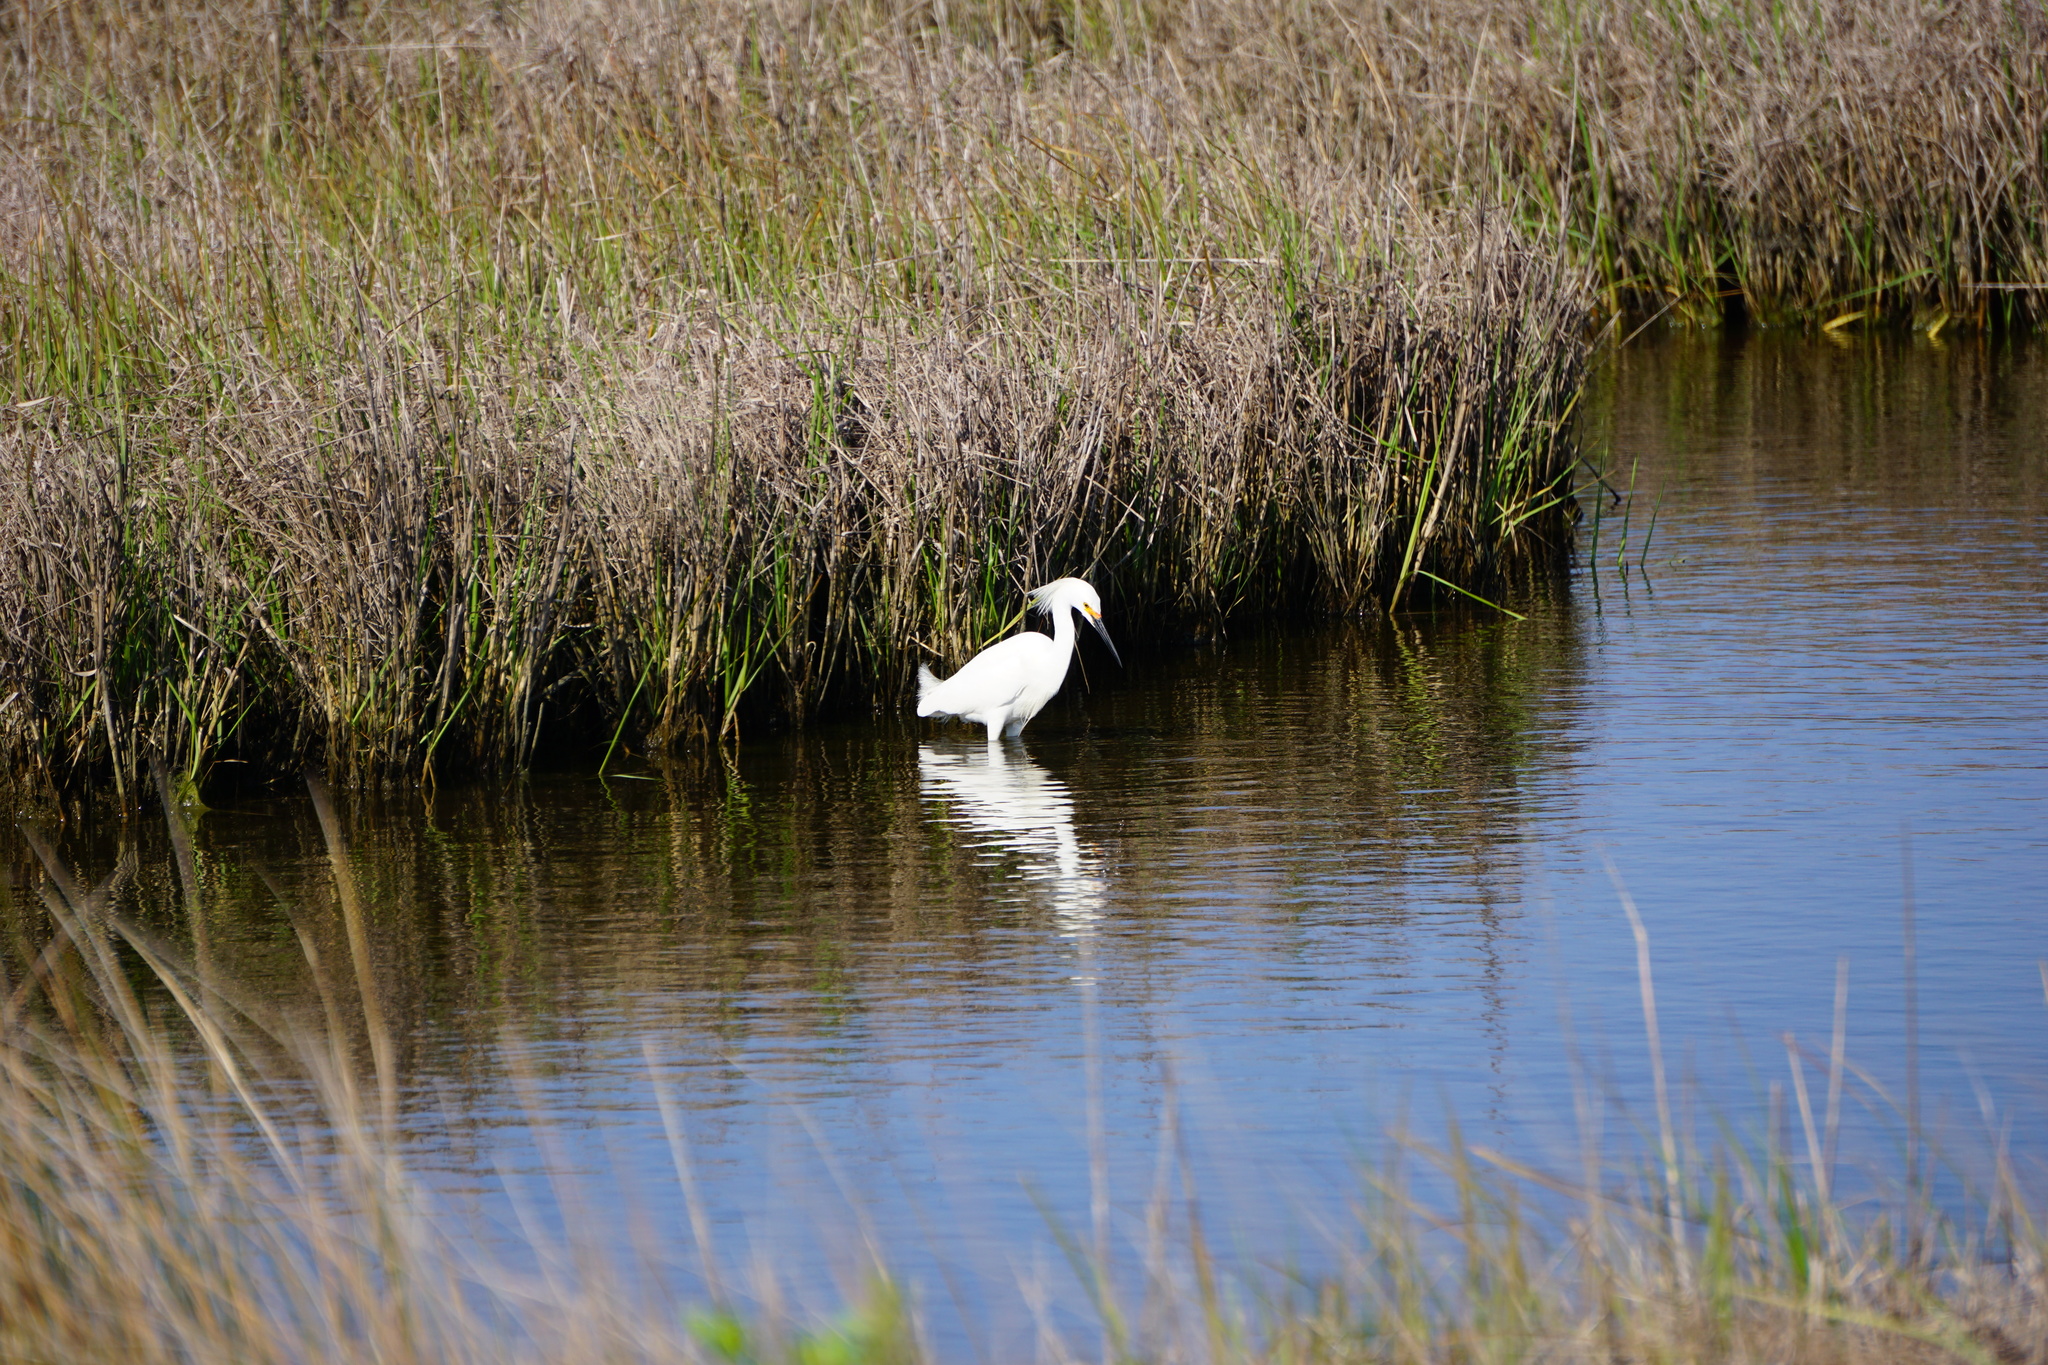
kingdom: Animalia
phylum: Chordata
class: Aves
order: Pelecaniformes
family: Ardeidae
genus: Egretta
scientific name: Egretta thula
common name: Snowy egret
